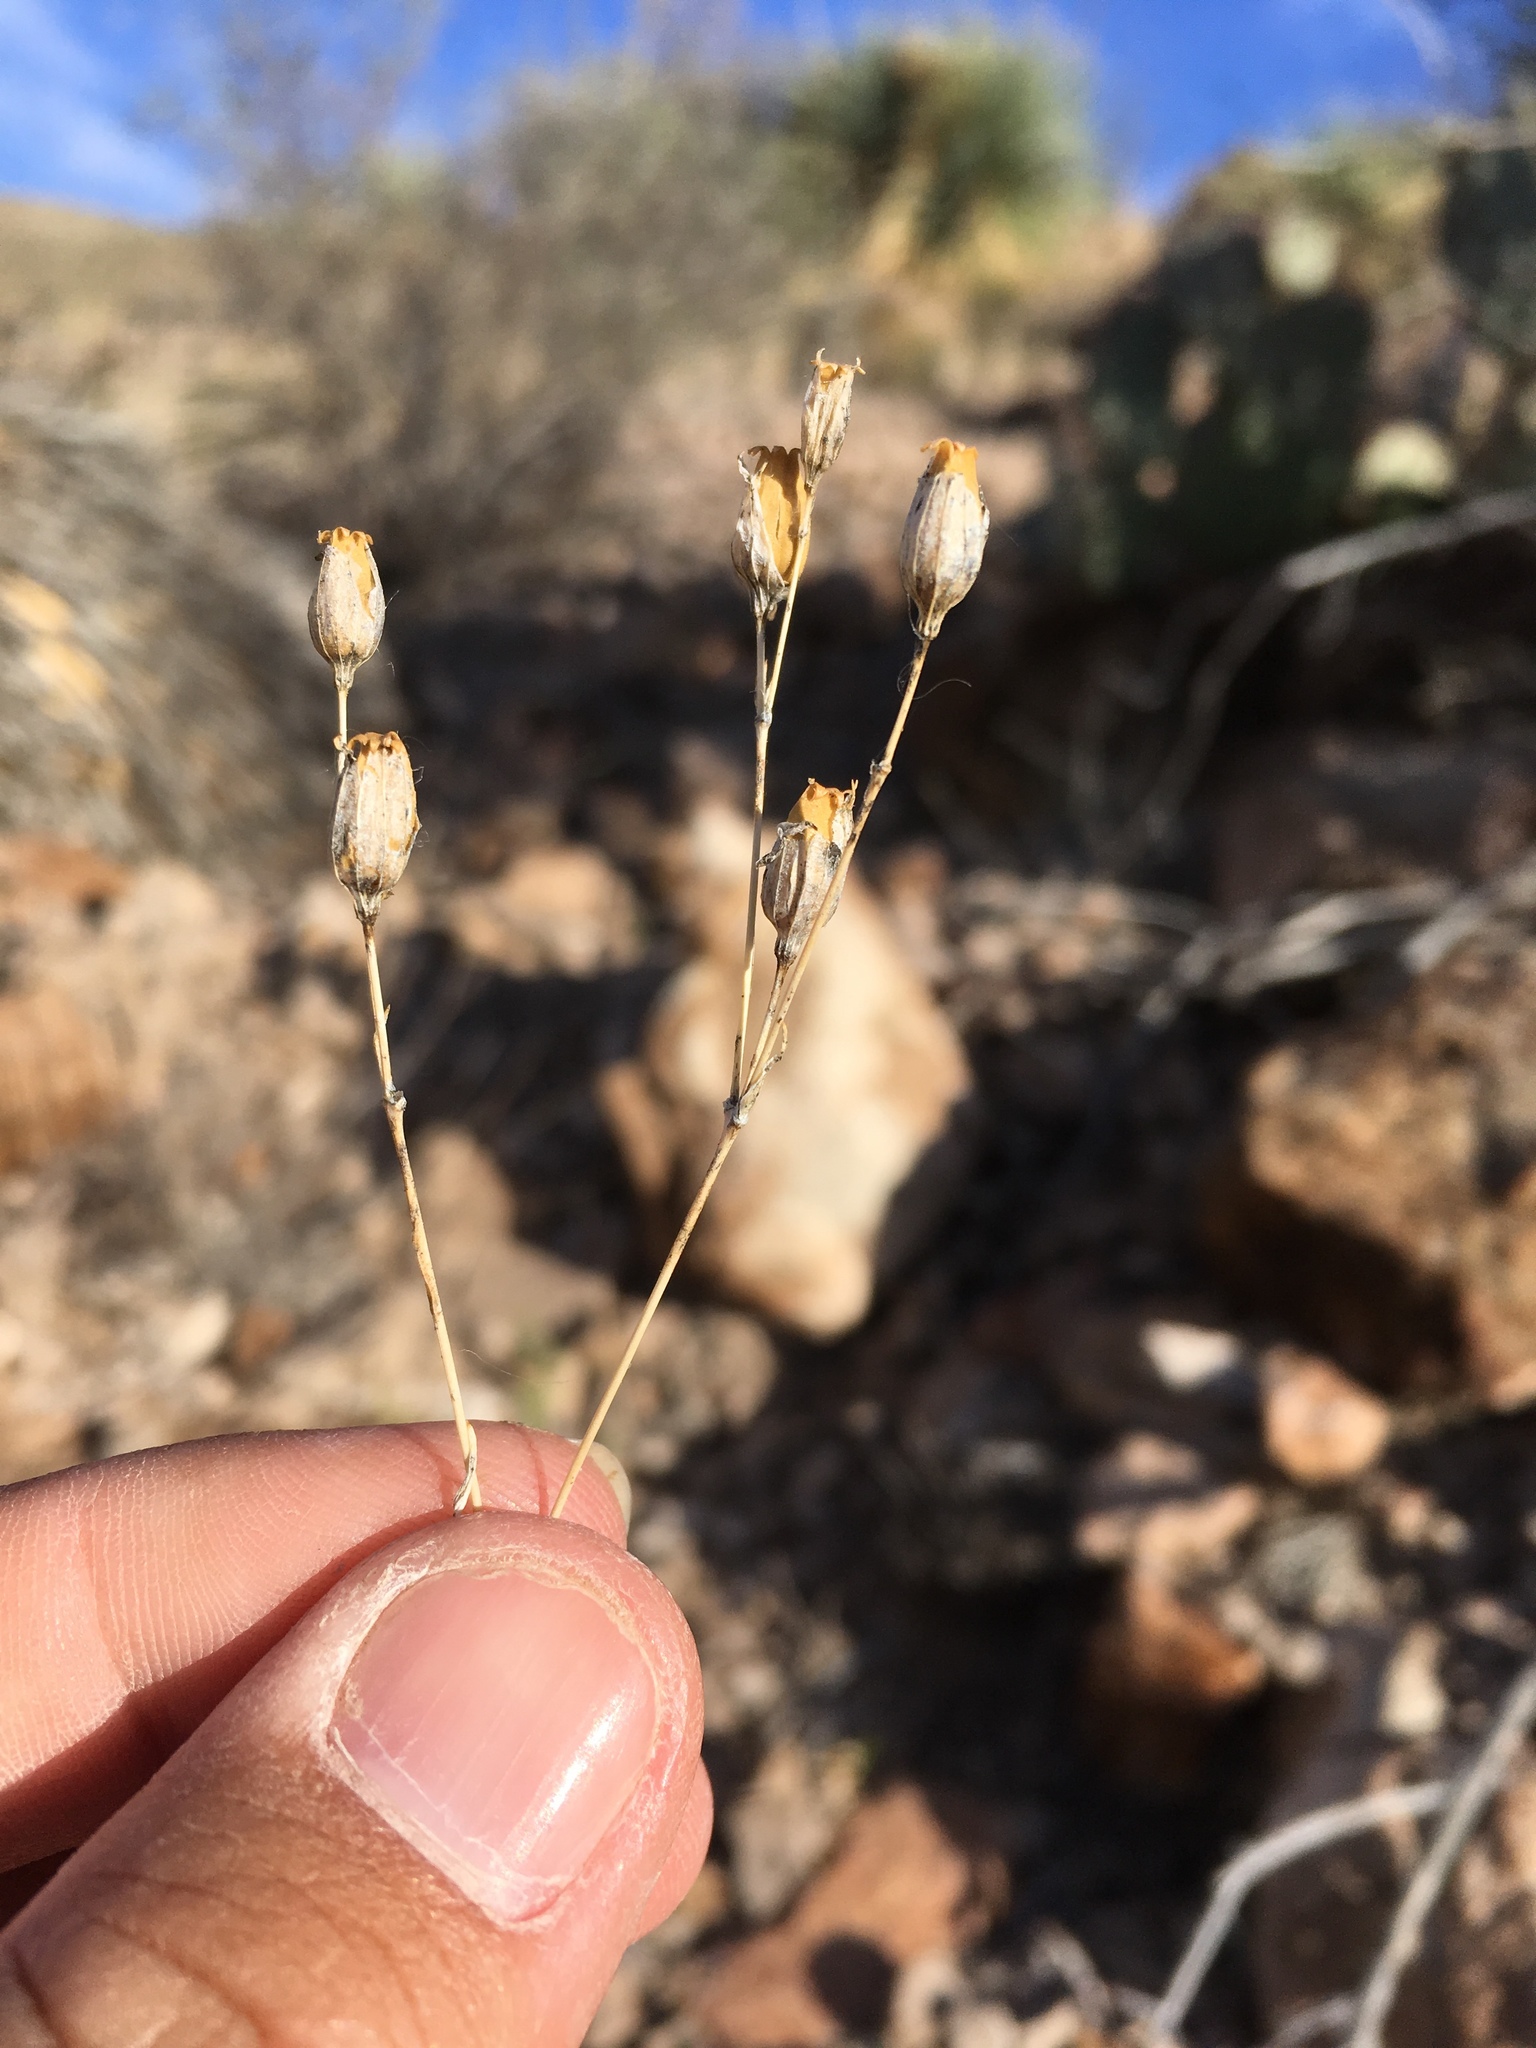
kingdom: Plantae
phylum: Tracheophyta
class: Magnoliopsida
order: Caryophyllales
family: Caryophyllaceae
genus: Silene
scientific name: Silene antirrhina
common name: Sleepy catchfly
